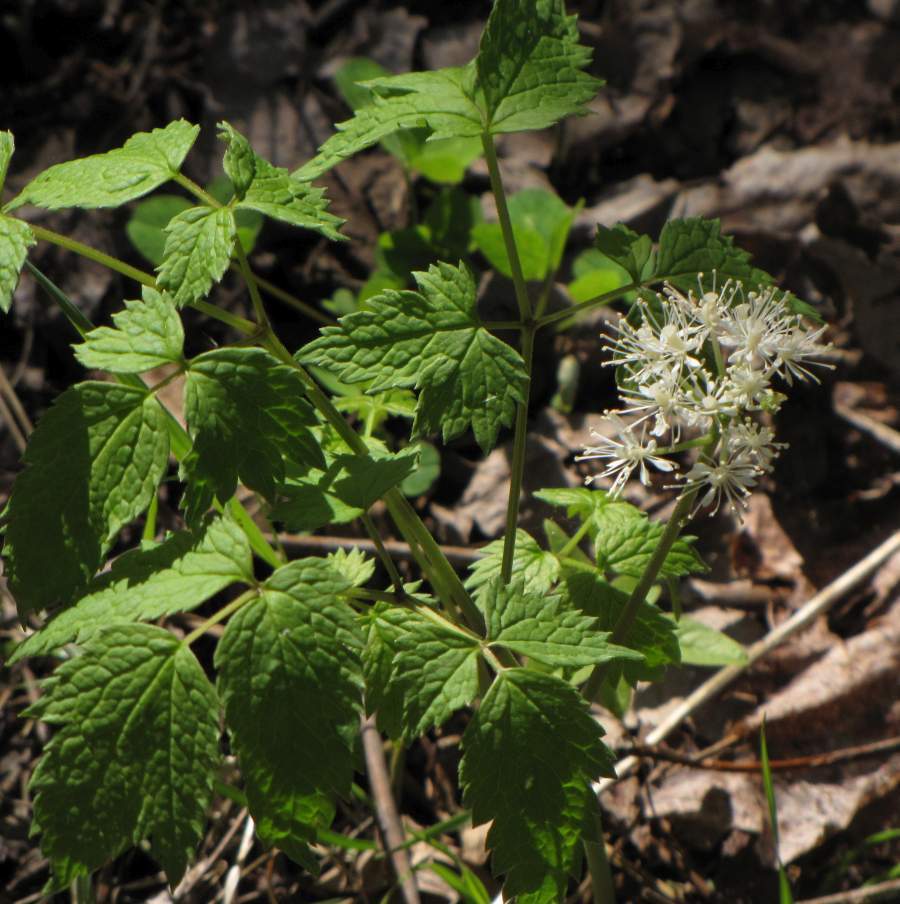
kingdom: Plantae
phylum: Tracheophyta
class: Magnoliopsida
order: Ranunculales
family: Ranunculaceae
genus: Actaea
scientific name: Actaea rubra
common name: Red baneberry
